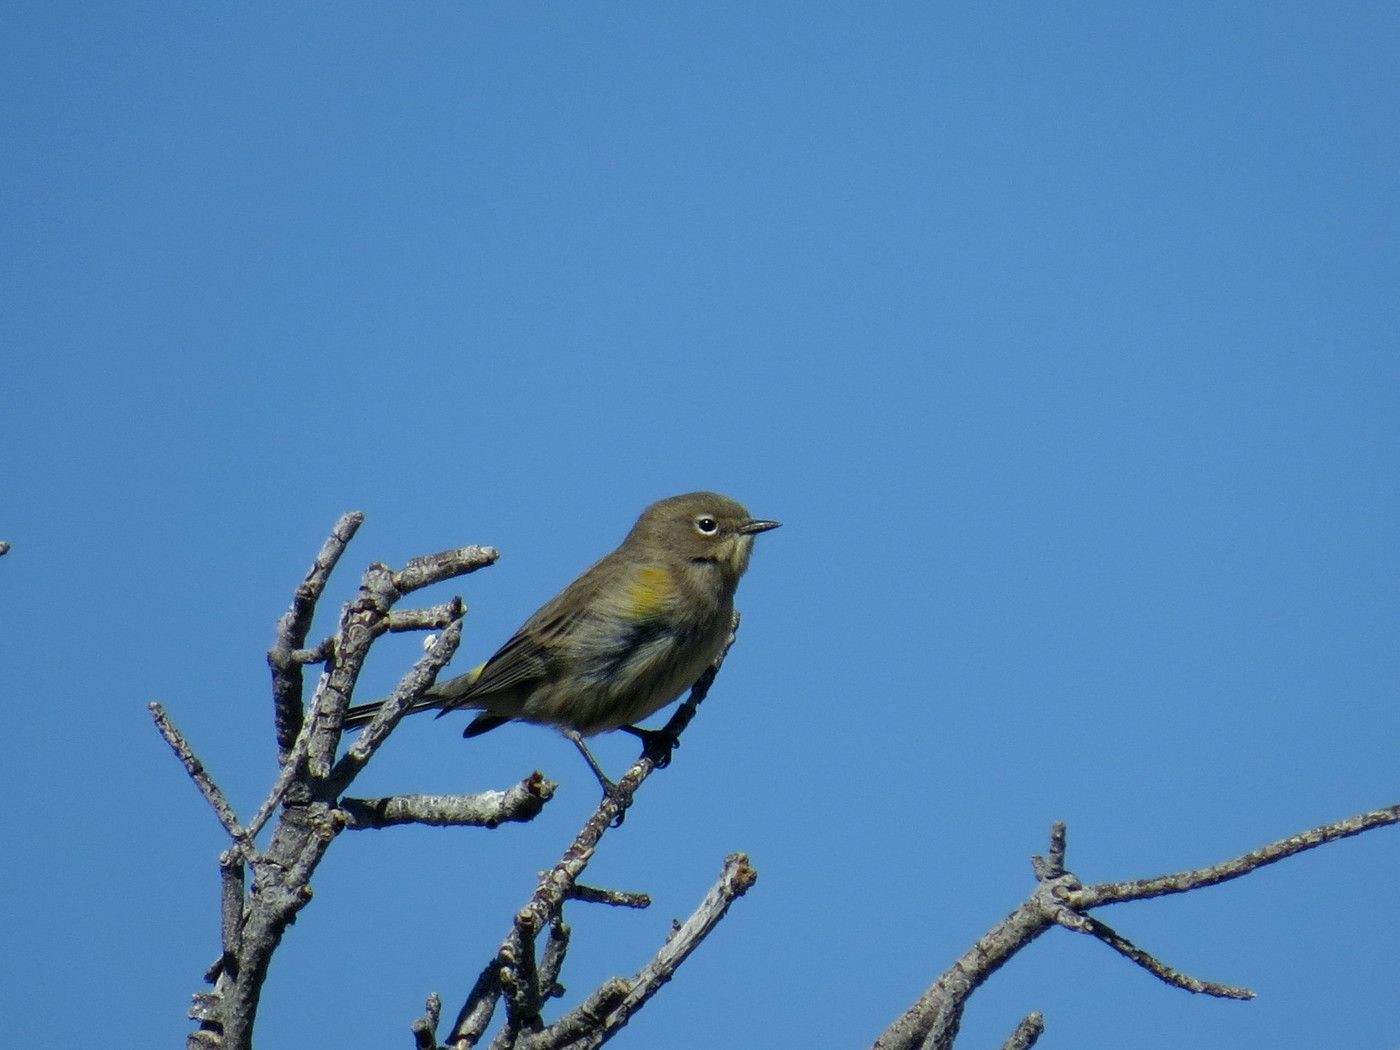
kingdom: Animalia
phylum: Chordata
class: Aves
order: Passeriformes
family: Parulidae
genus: Setophaga
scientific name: Setophaga coronata
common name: Myrtle warbler
